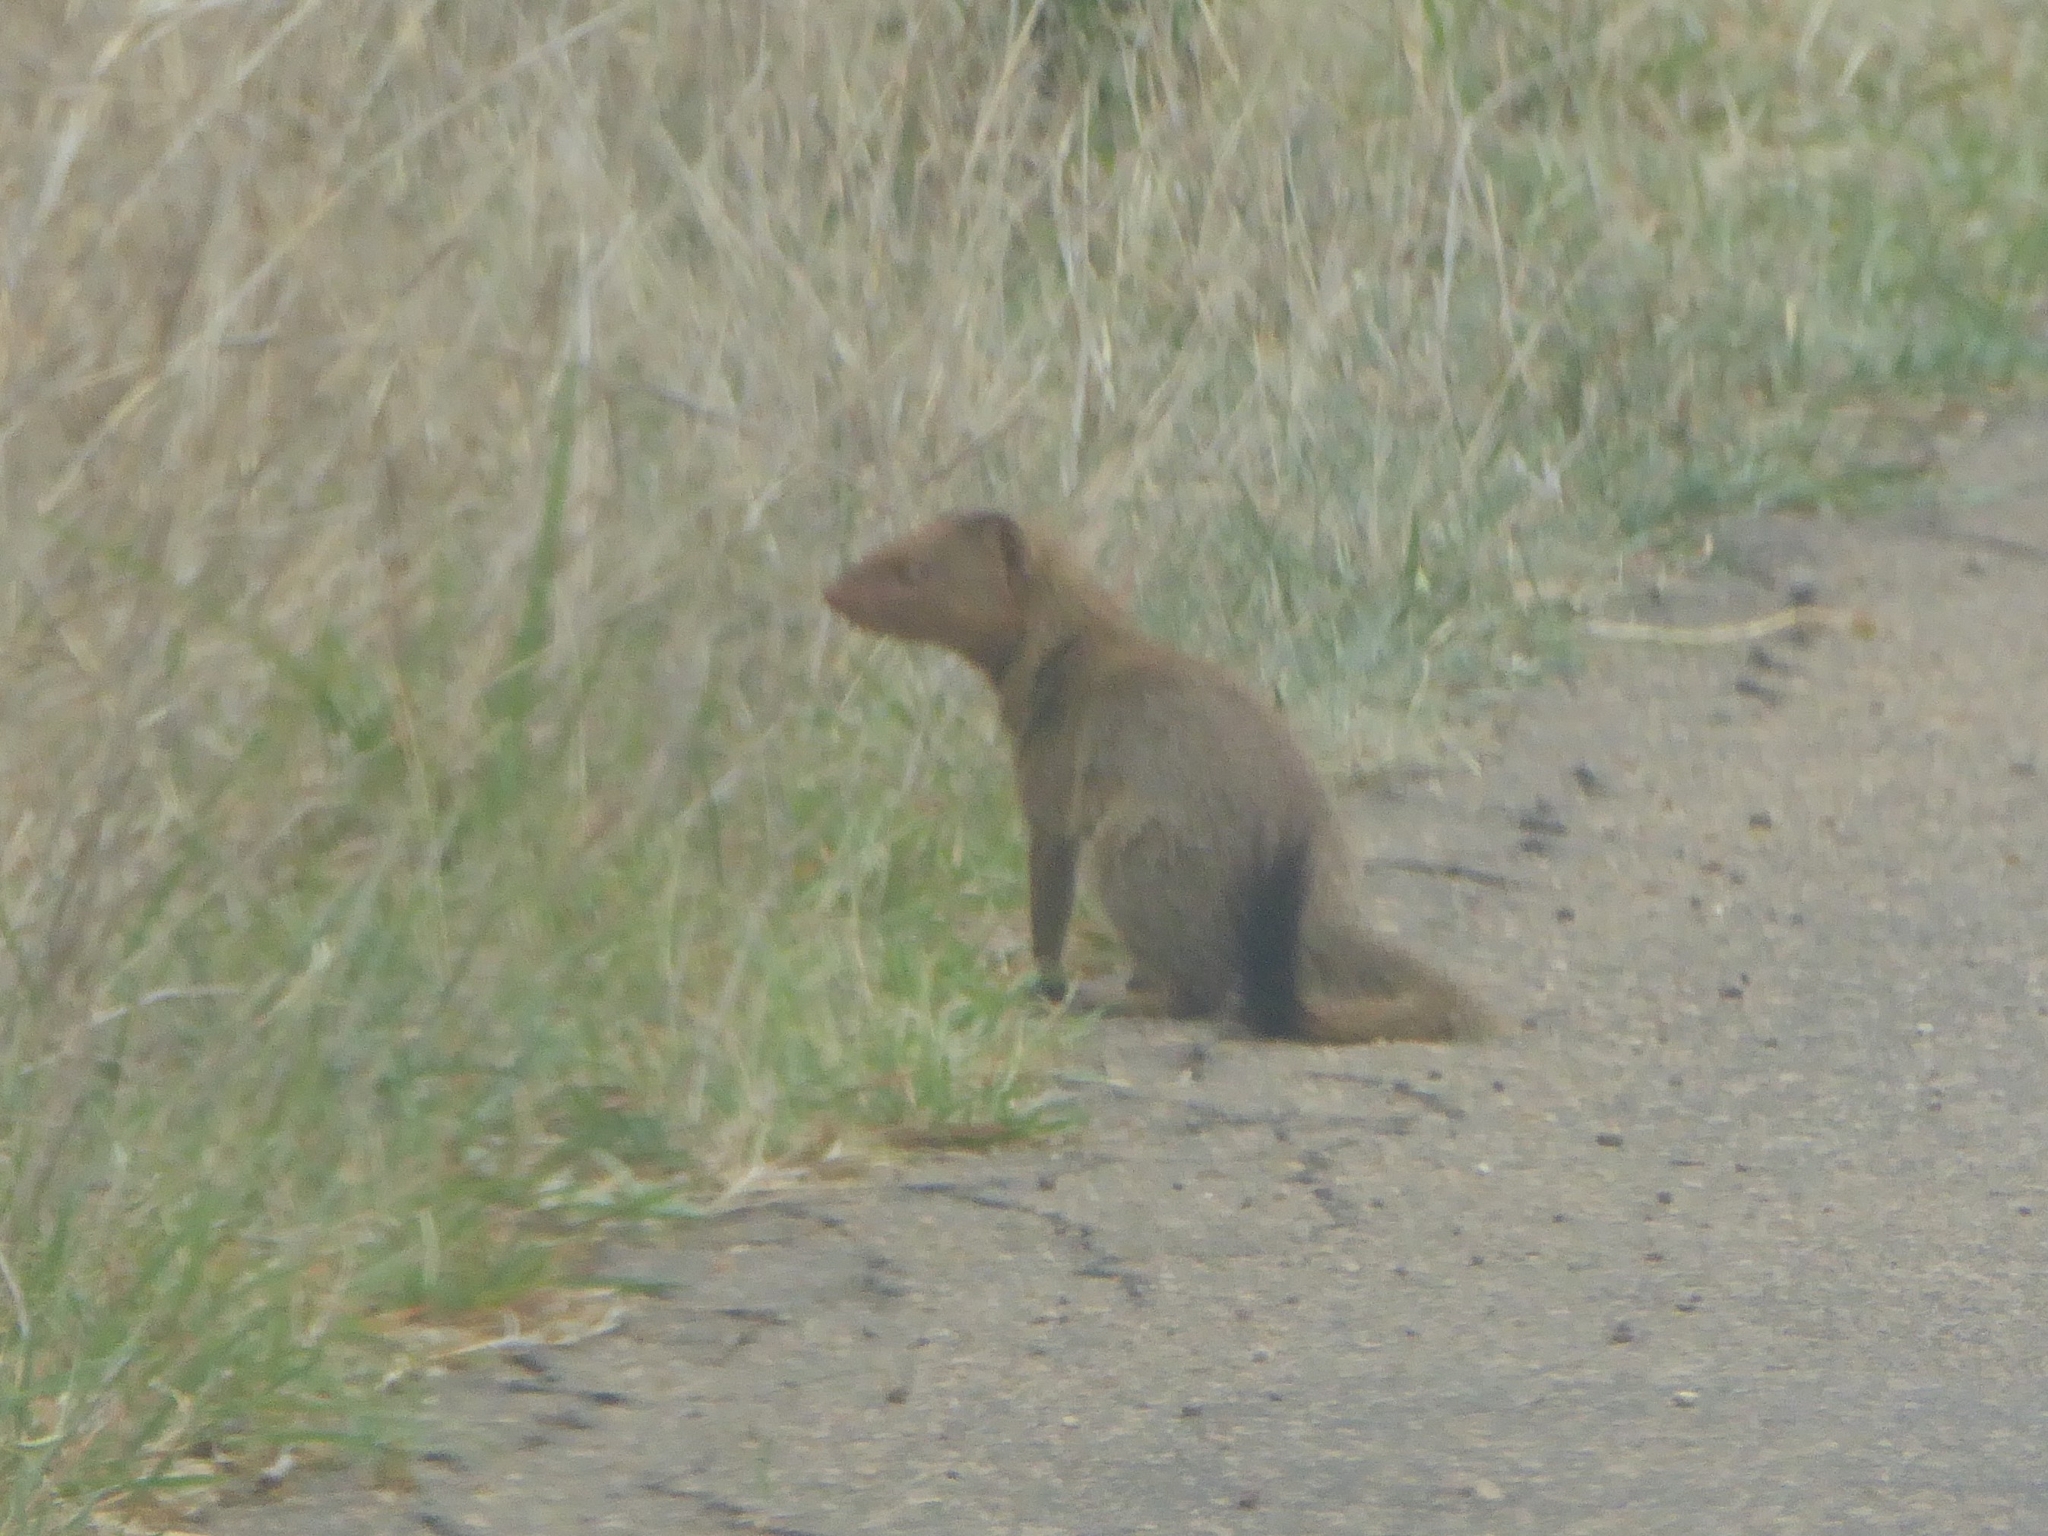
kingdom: Animalia
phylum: Chordata
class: Mammalia
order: Carnivora
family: Herpestidae
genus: Galerella
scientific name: Galerella sanguinea
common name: Slender mongoose
